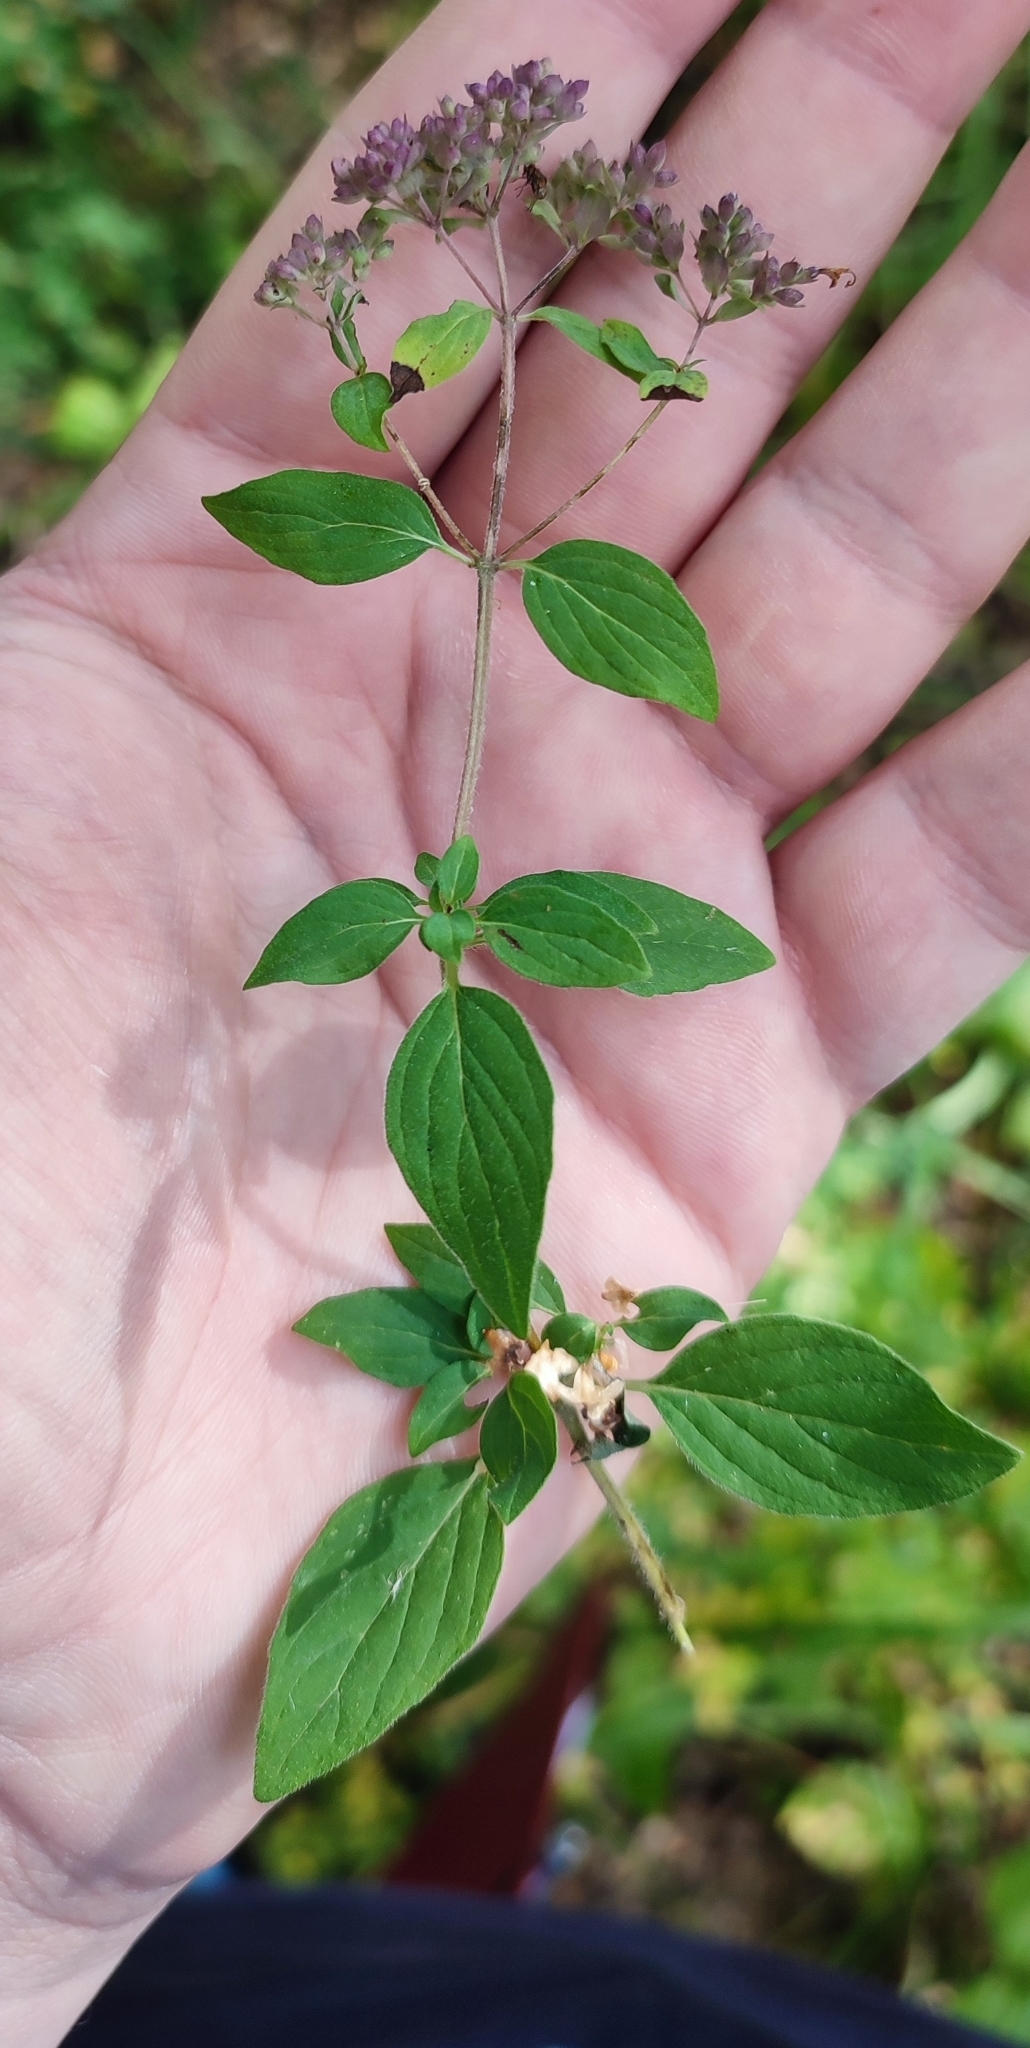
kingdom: Plantae
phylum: Tracheophyta
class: Magnoliopsida
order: Lamiales
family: Lamiaceae
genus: Origanum
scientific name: Origanum vulgare
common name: Wild marjoram
